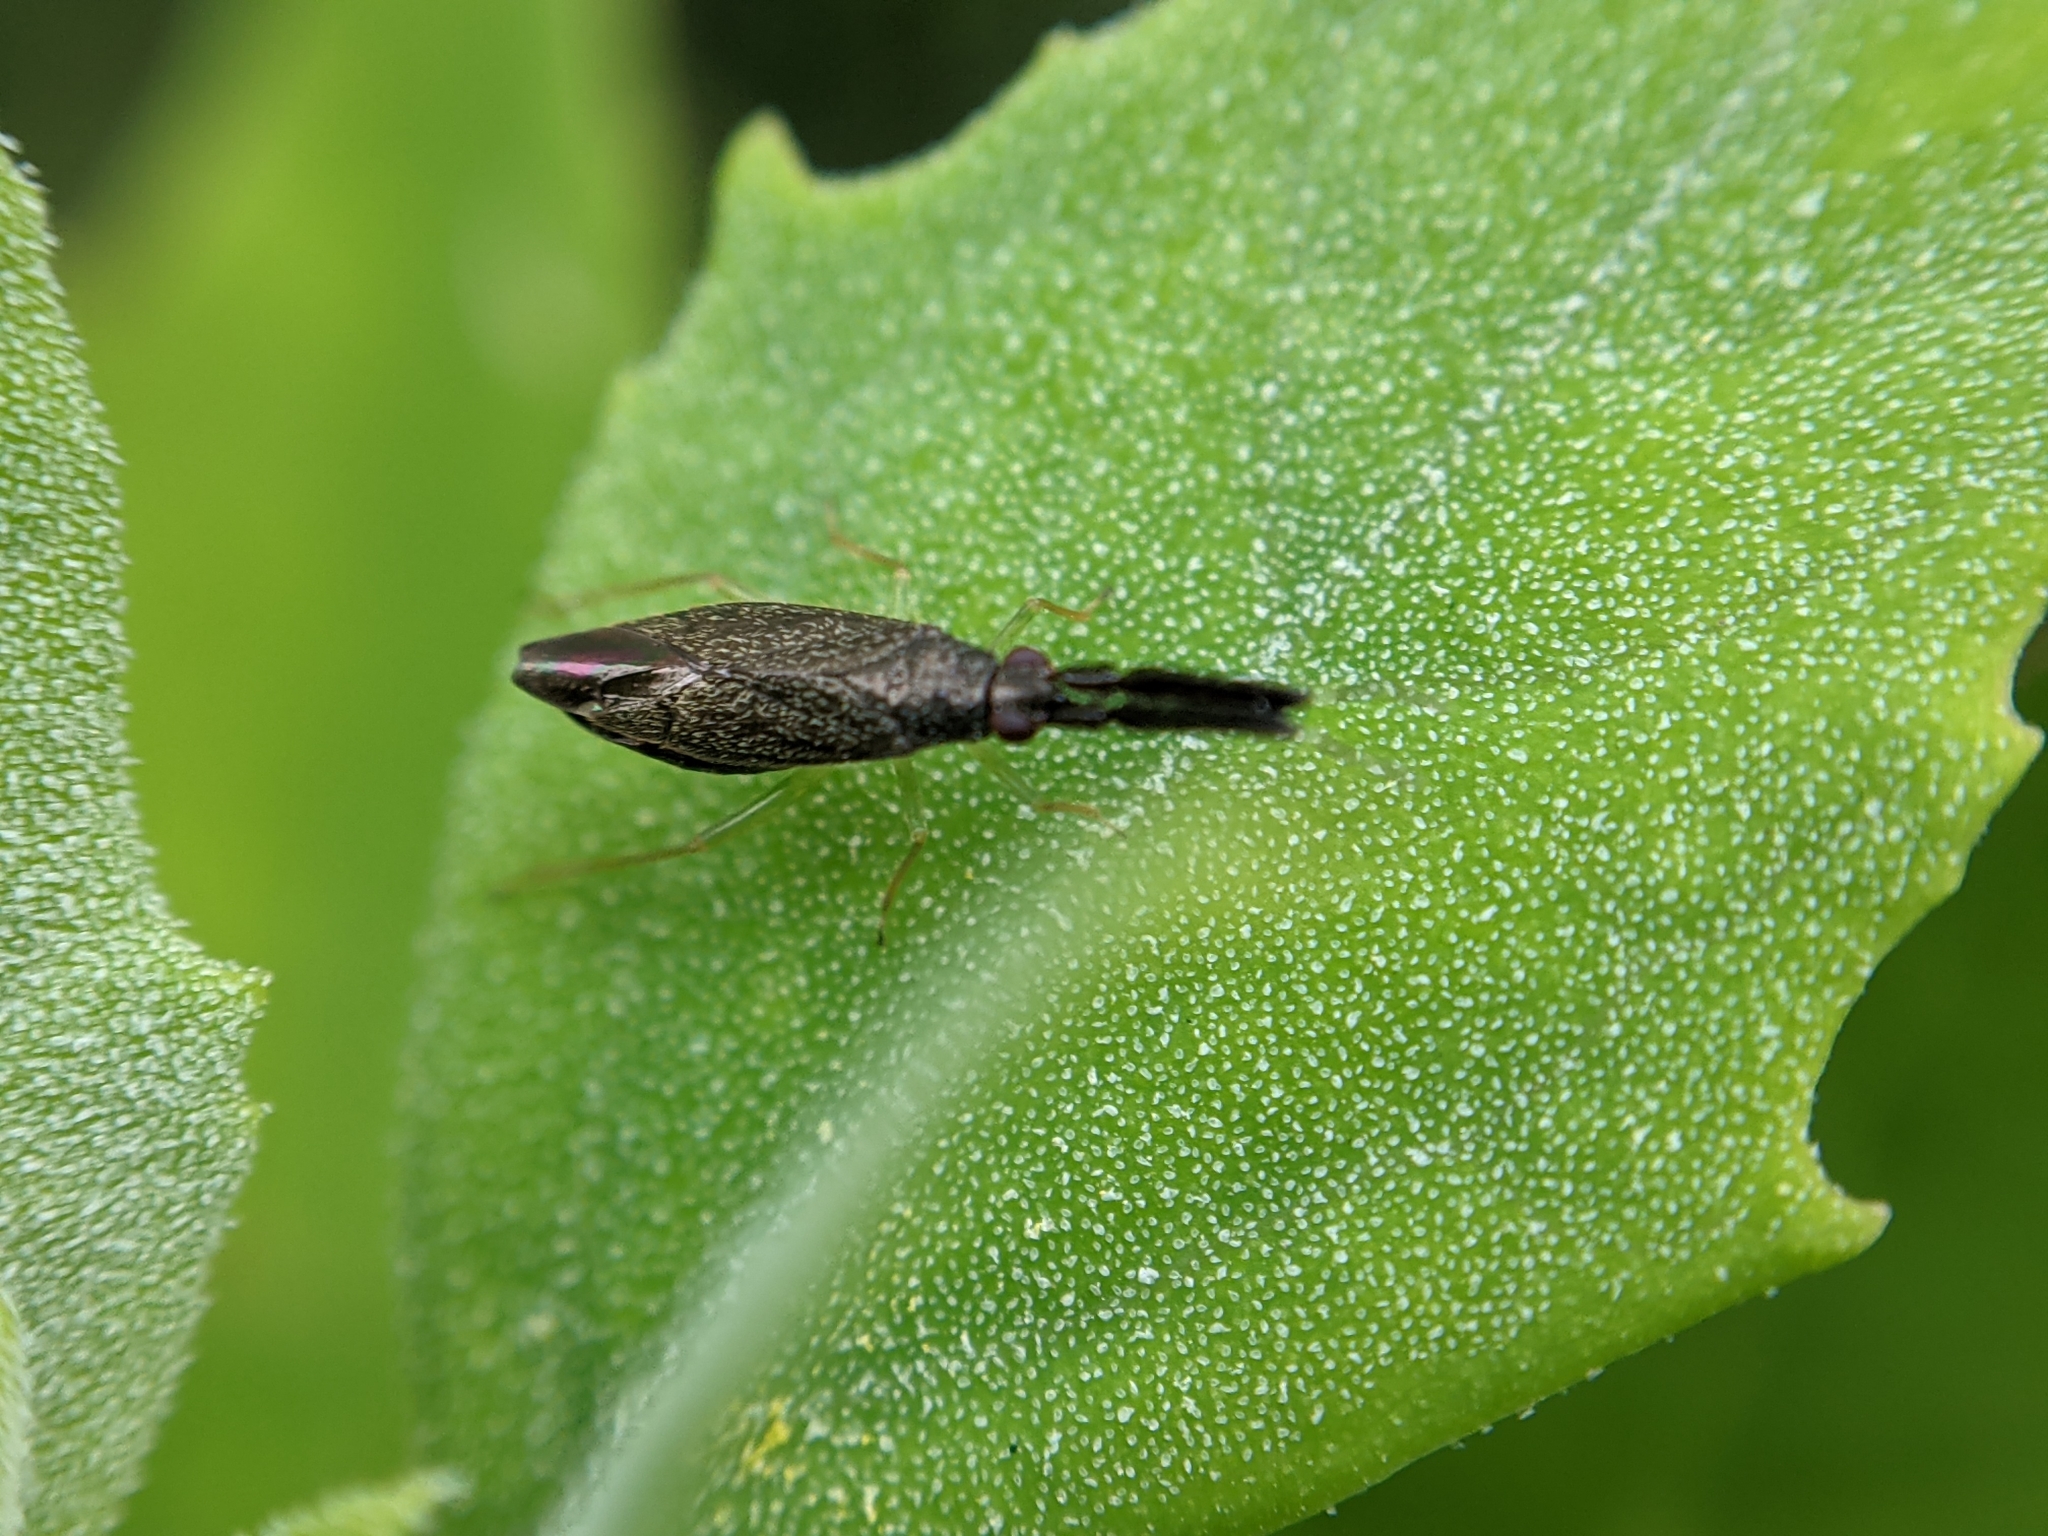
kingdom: Animalia
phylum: Arthropoda
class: Insecta
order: Hemiptera
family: Miridae
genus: Heterotoma
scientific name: Heterotoma planicornis
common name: Plant bug
